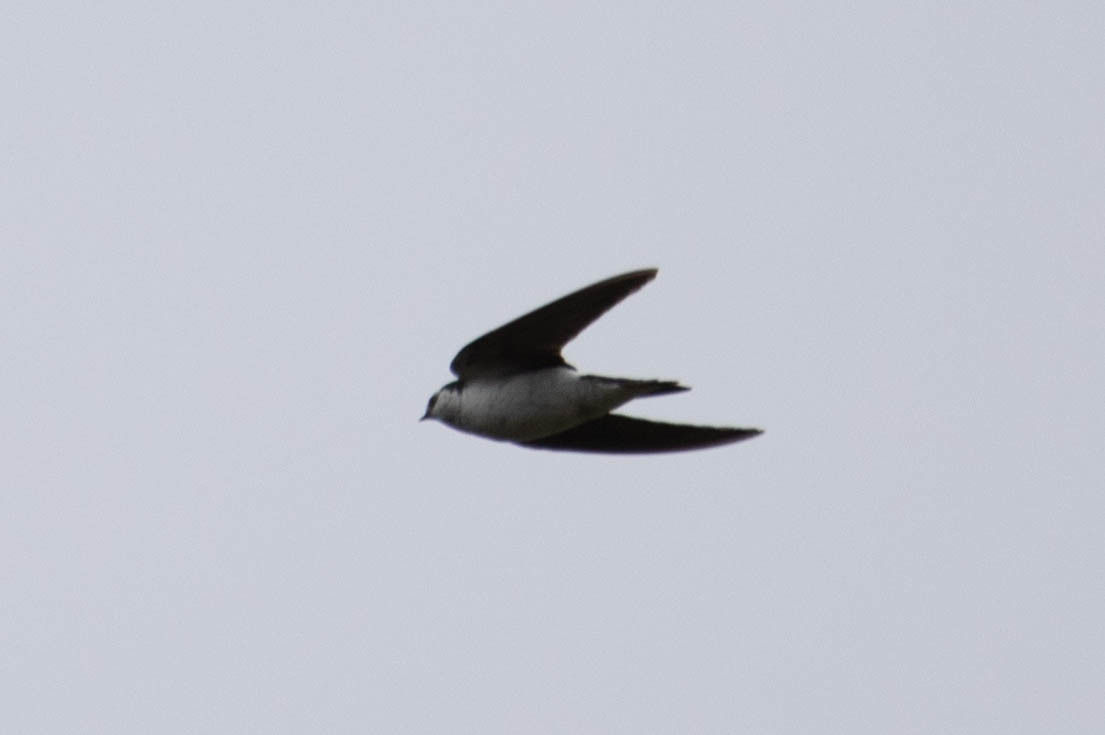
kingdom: Animalia
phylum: Chordata
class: Aves
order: Passeriformes
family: Hirundinidae
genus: Tachycineta
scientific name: Tachycineta thalassina
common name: Violet-green swallow
